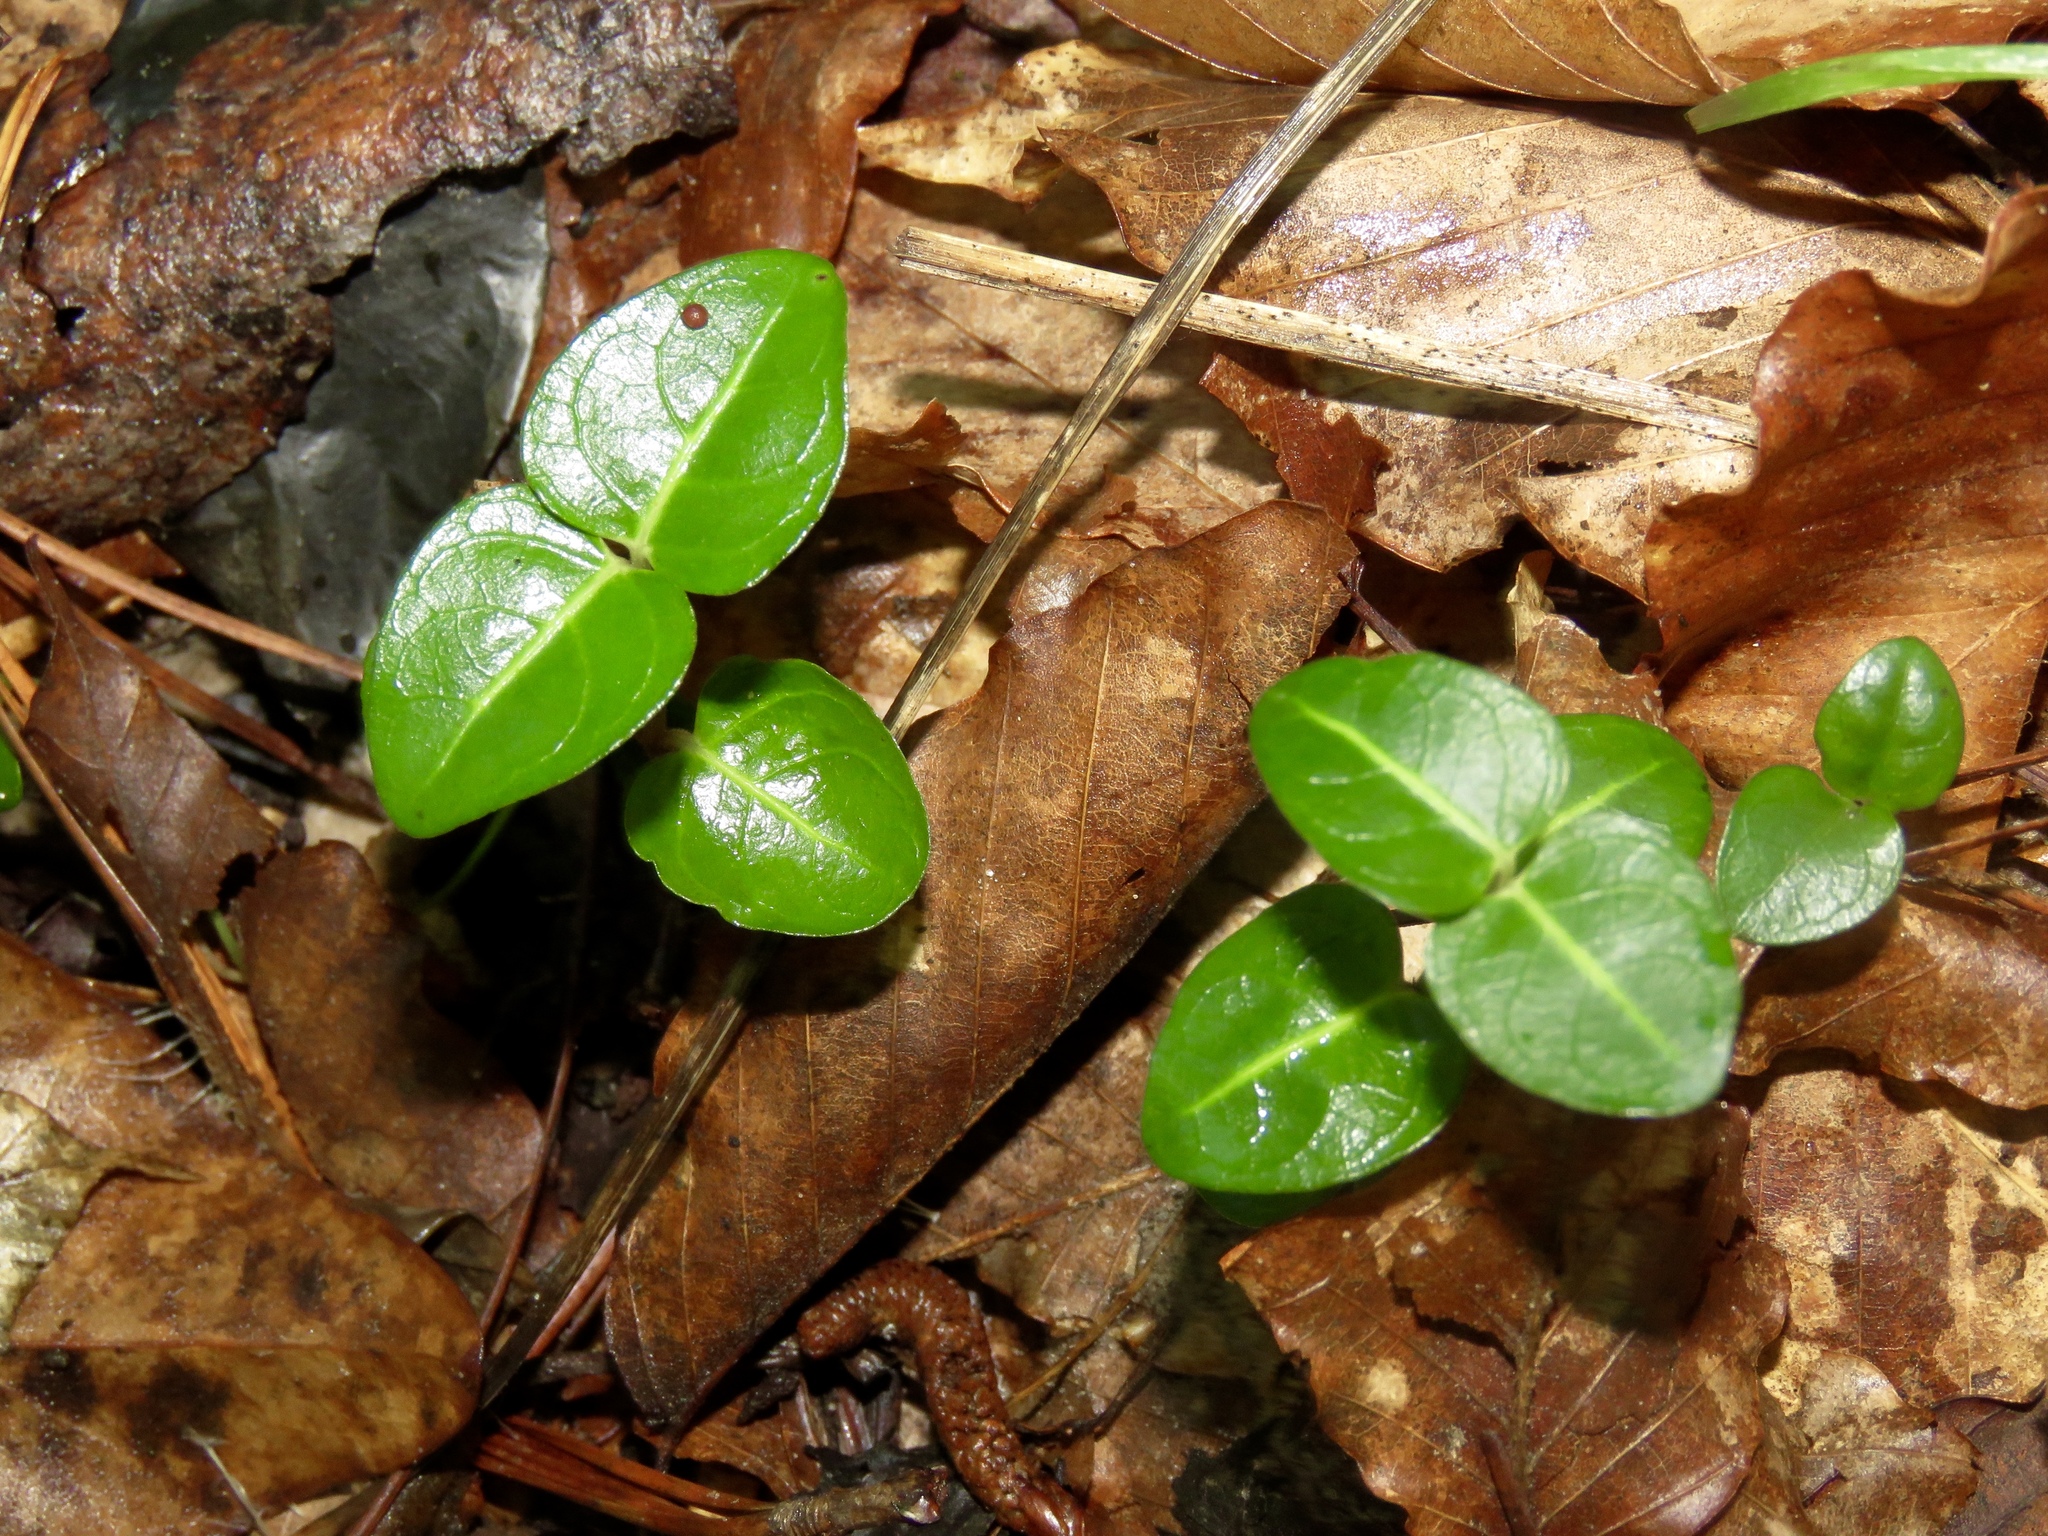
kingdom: Plantae
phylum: Tracheophyta
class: Magnoliopsida
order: Gentianales
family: Rubiaceae
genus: Mitchella
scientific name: Mitchella repens
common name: Partridge-berry
